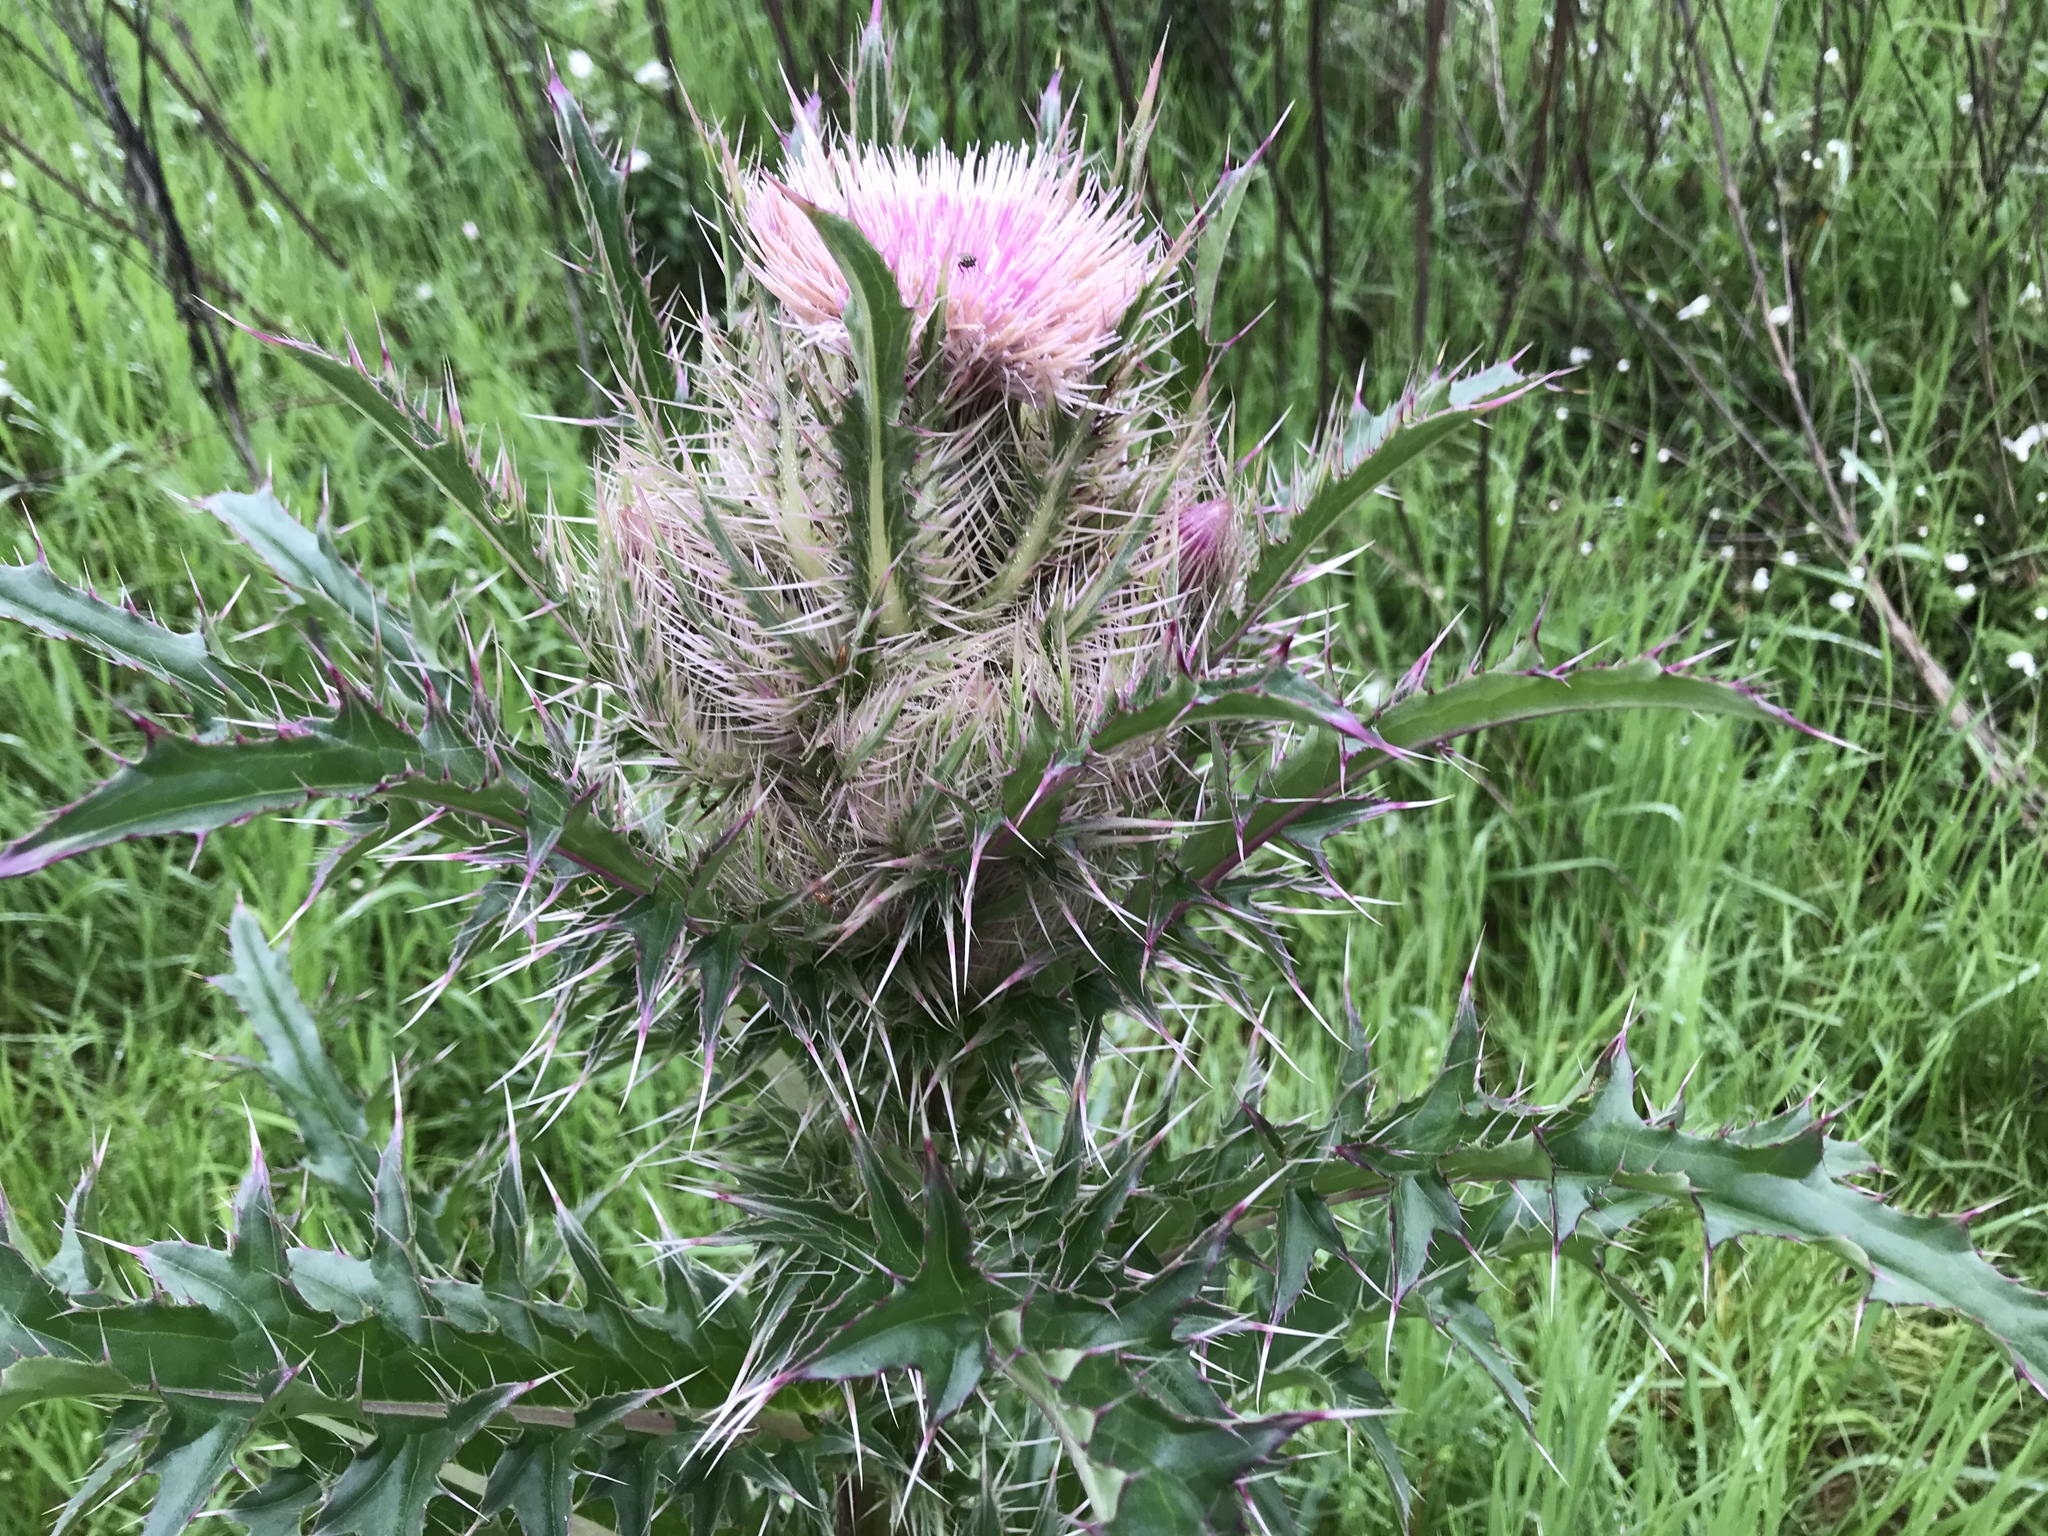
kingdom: Plantae
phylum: Tracheophyta
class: Magnoliopsida
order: Asterales
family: Asteraceae
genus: Cirsium
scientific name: Cirsium horridulum
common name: Bristly thistle
